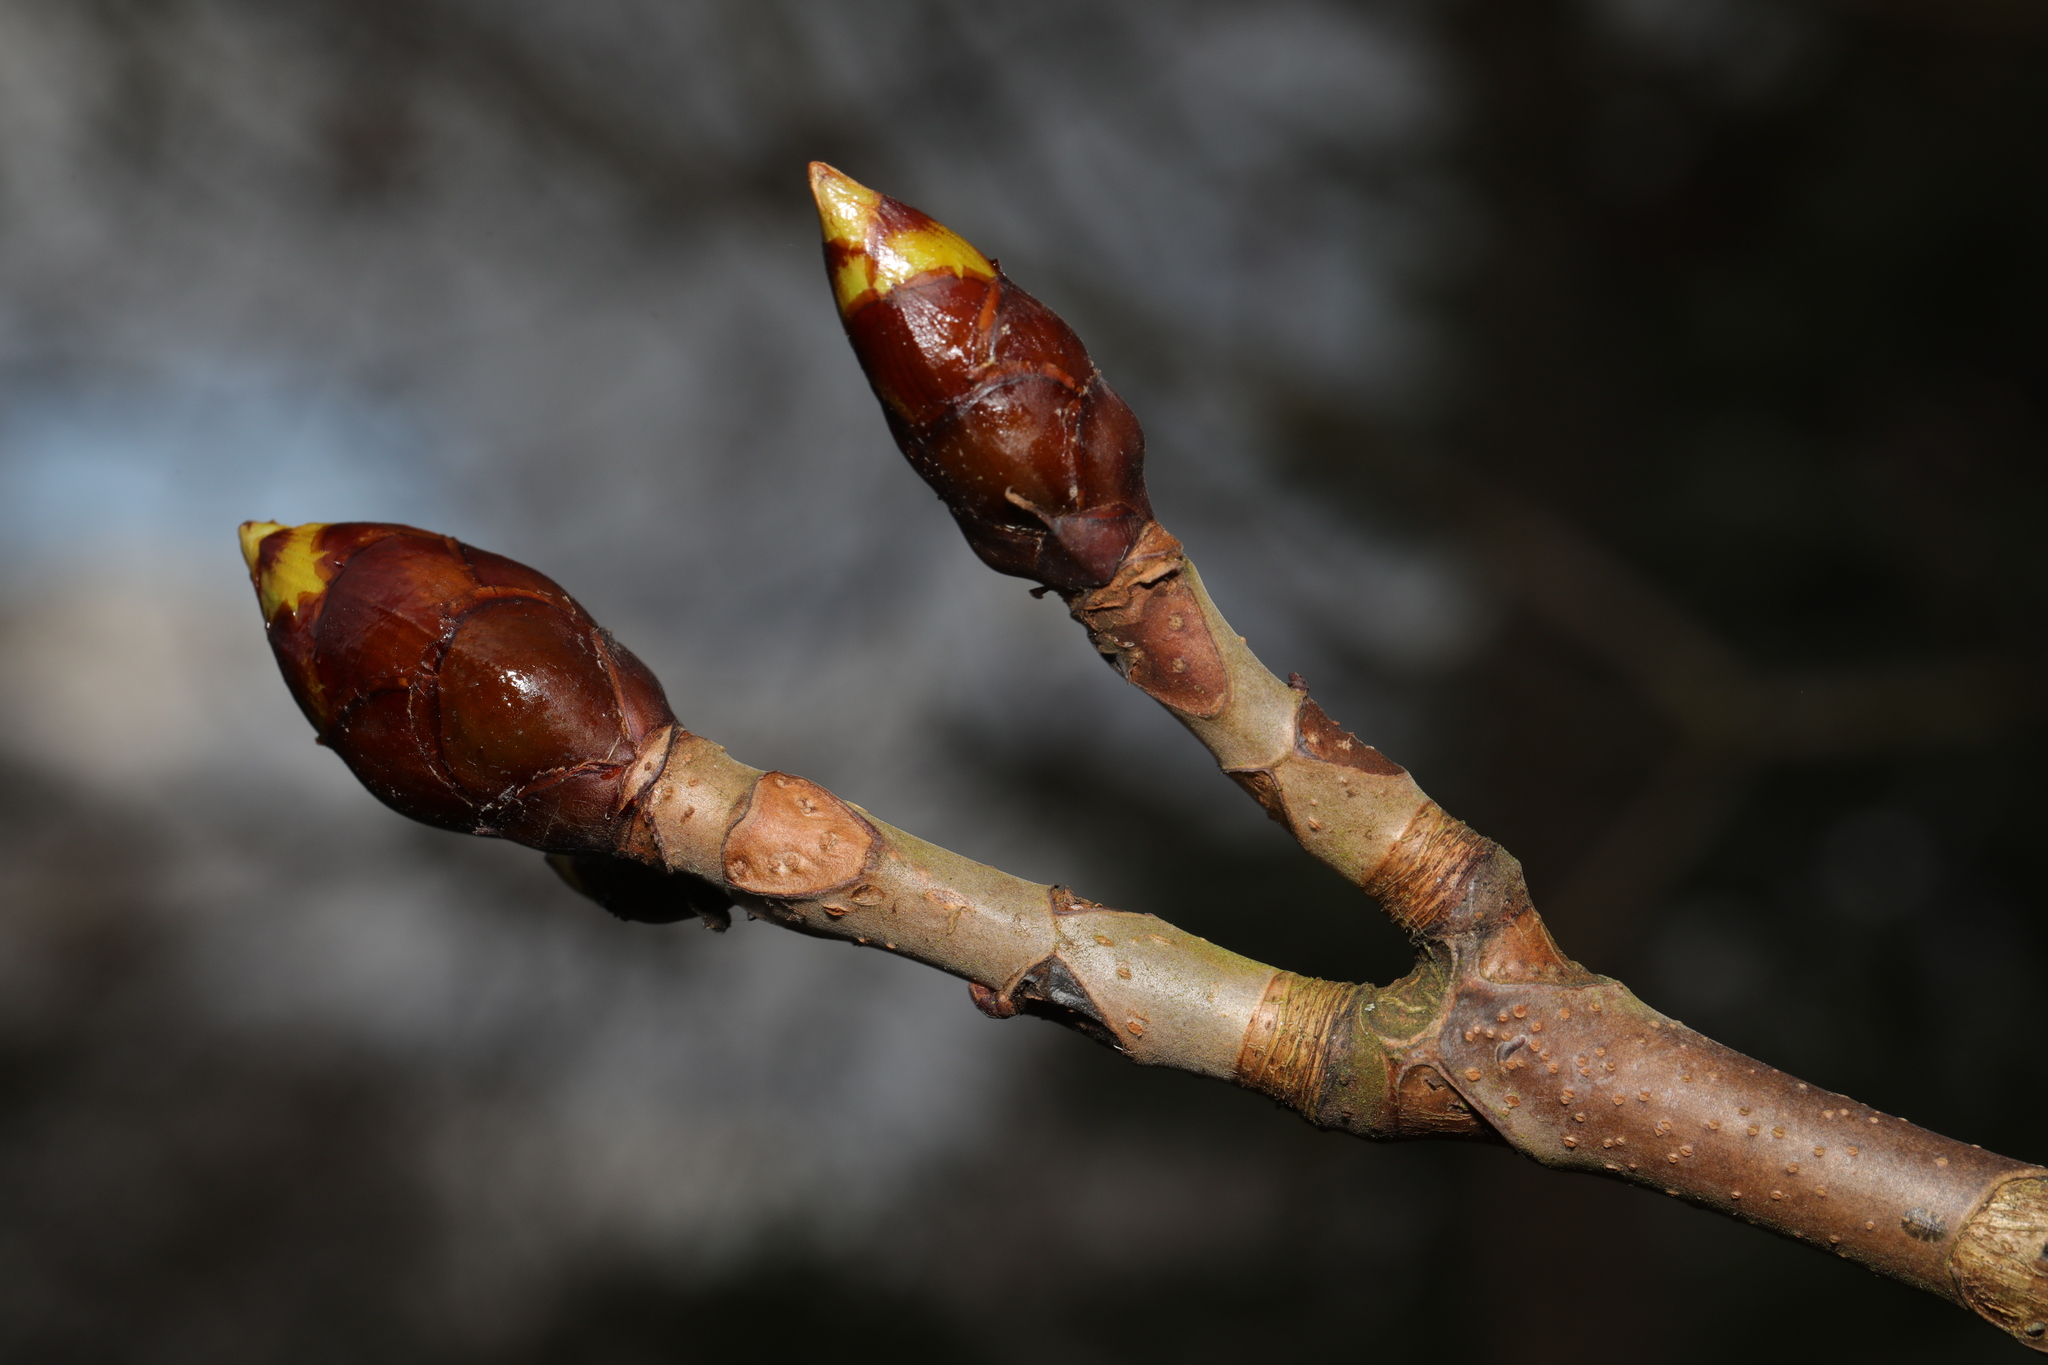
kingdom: Plantae
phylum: Tracheophyta
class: Magnoliopsida
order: Sapindales
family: Sapindaceae
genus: Aesculus
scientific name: Aesculus hippocastanum
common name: Horse-chestnut
